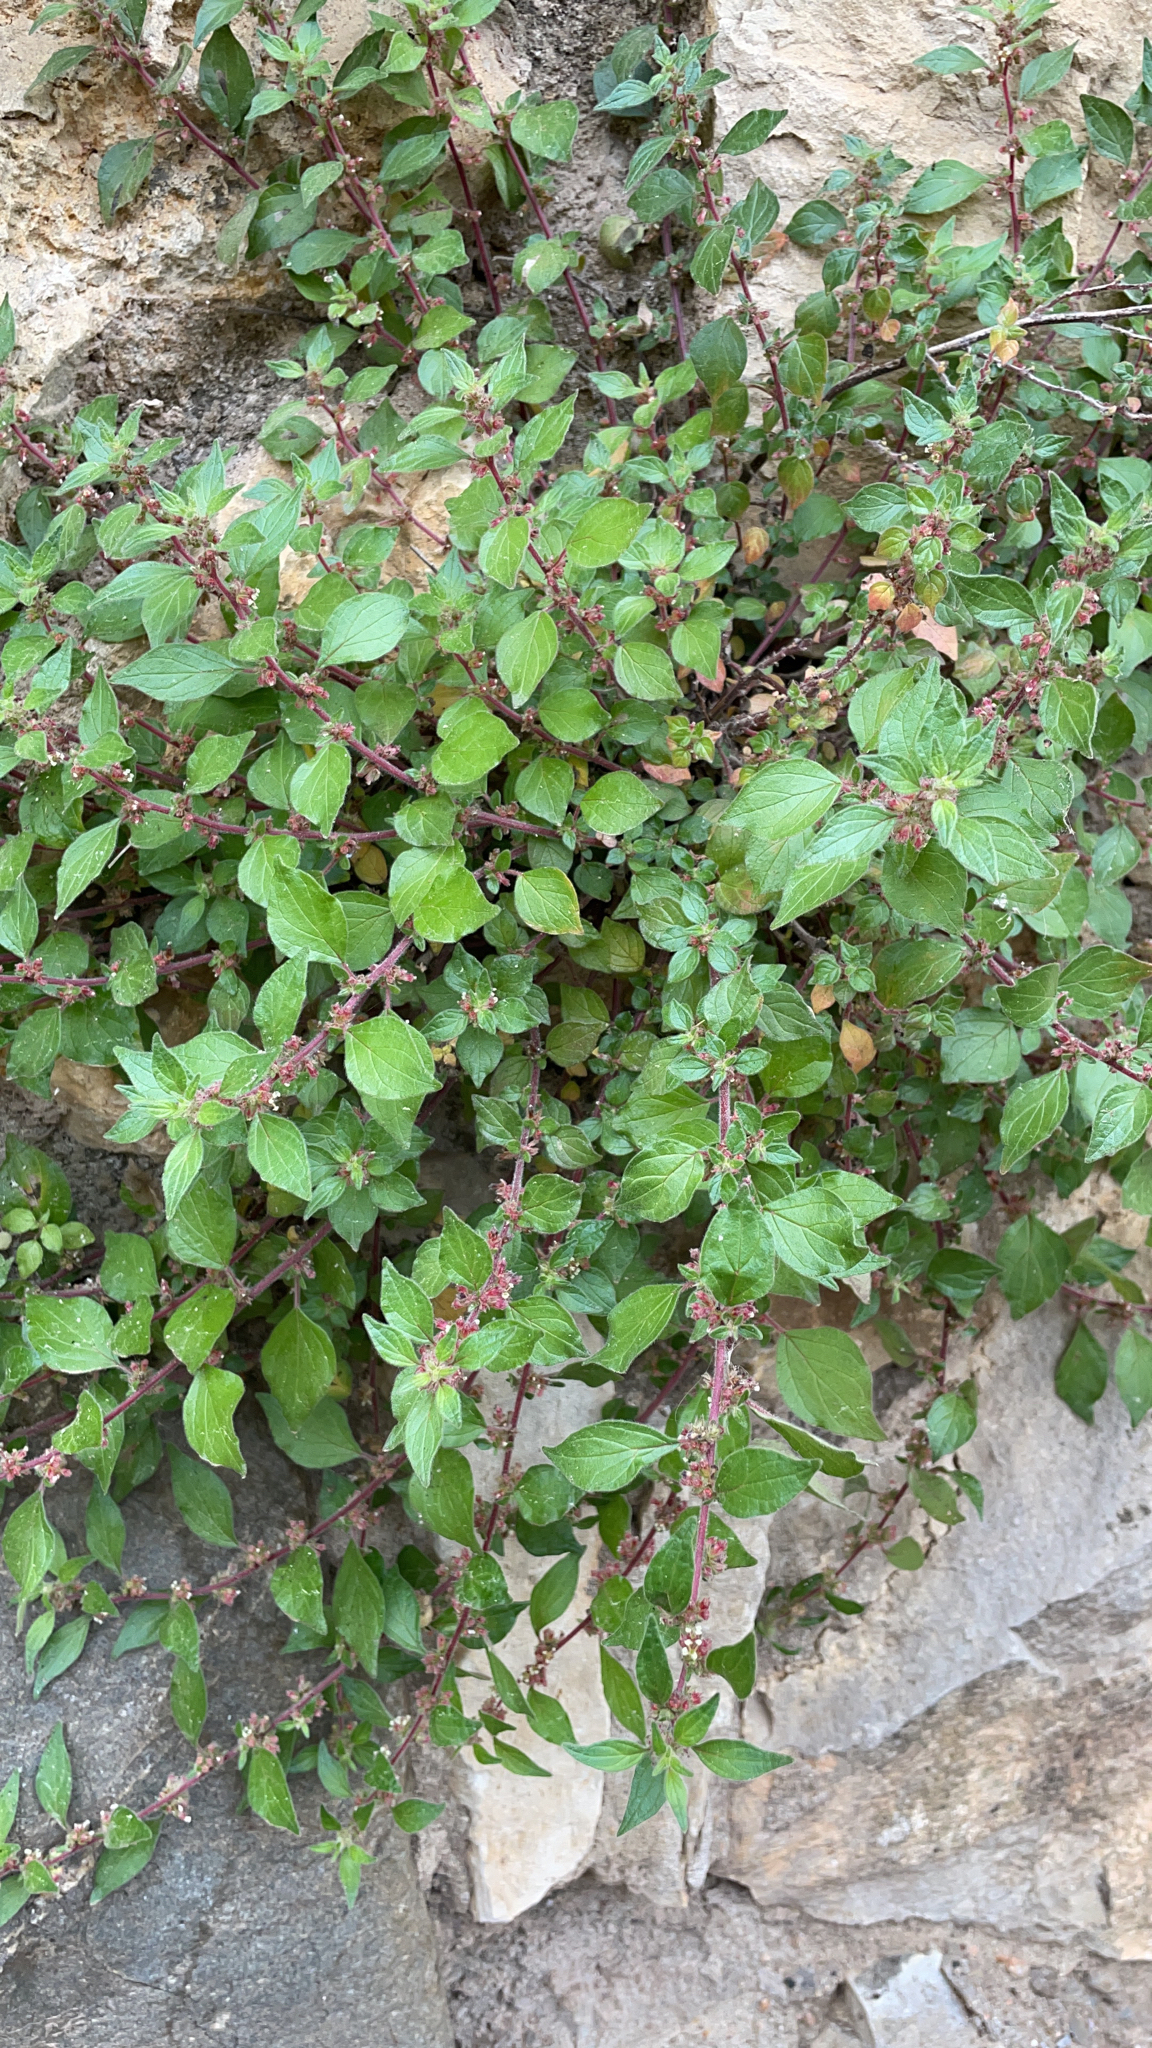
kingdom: Plantae
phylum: Tracheophyta
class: Magnoliopsida
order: Rosales
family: Urticaceae
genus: Parietaria
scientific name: Parietaria judaica
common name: Pellitory-of-the-wall
